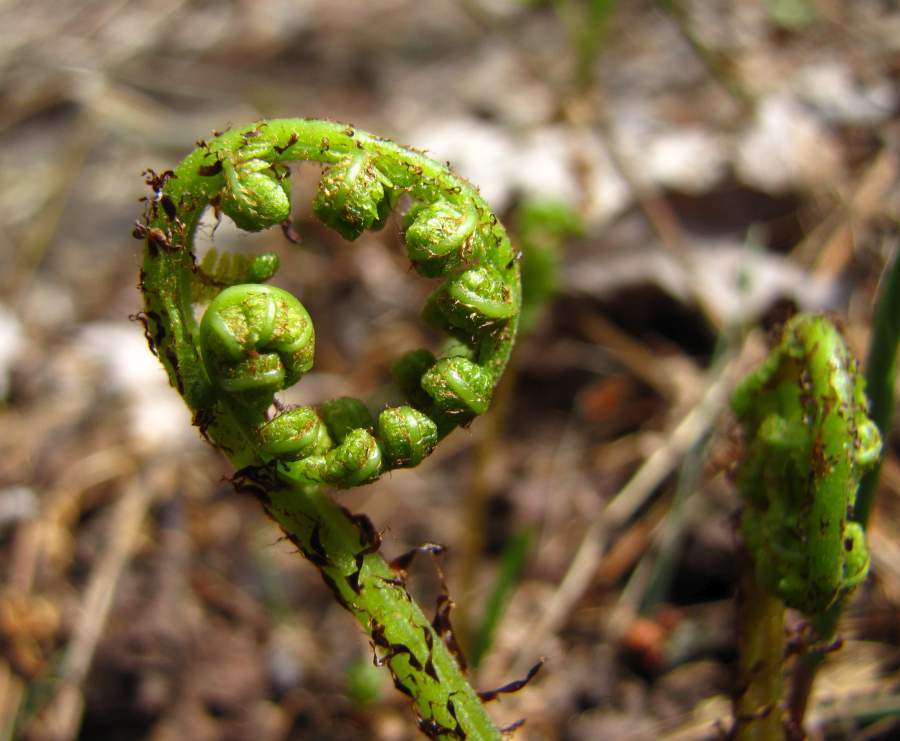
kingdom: Plantae
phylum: Tracheophyta
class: Polypodiopsida
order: Polypodiales
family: Athyriaceae
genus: Athyrium
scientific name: Athyrium angustum
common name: Northern lady fern
